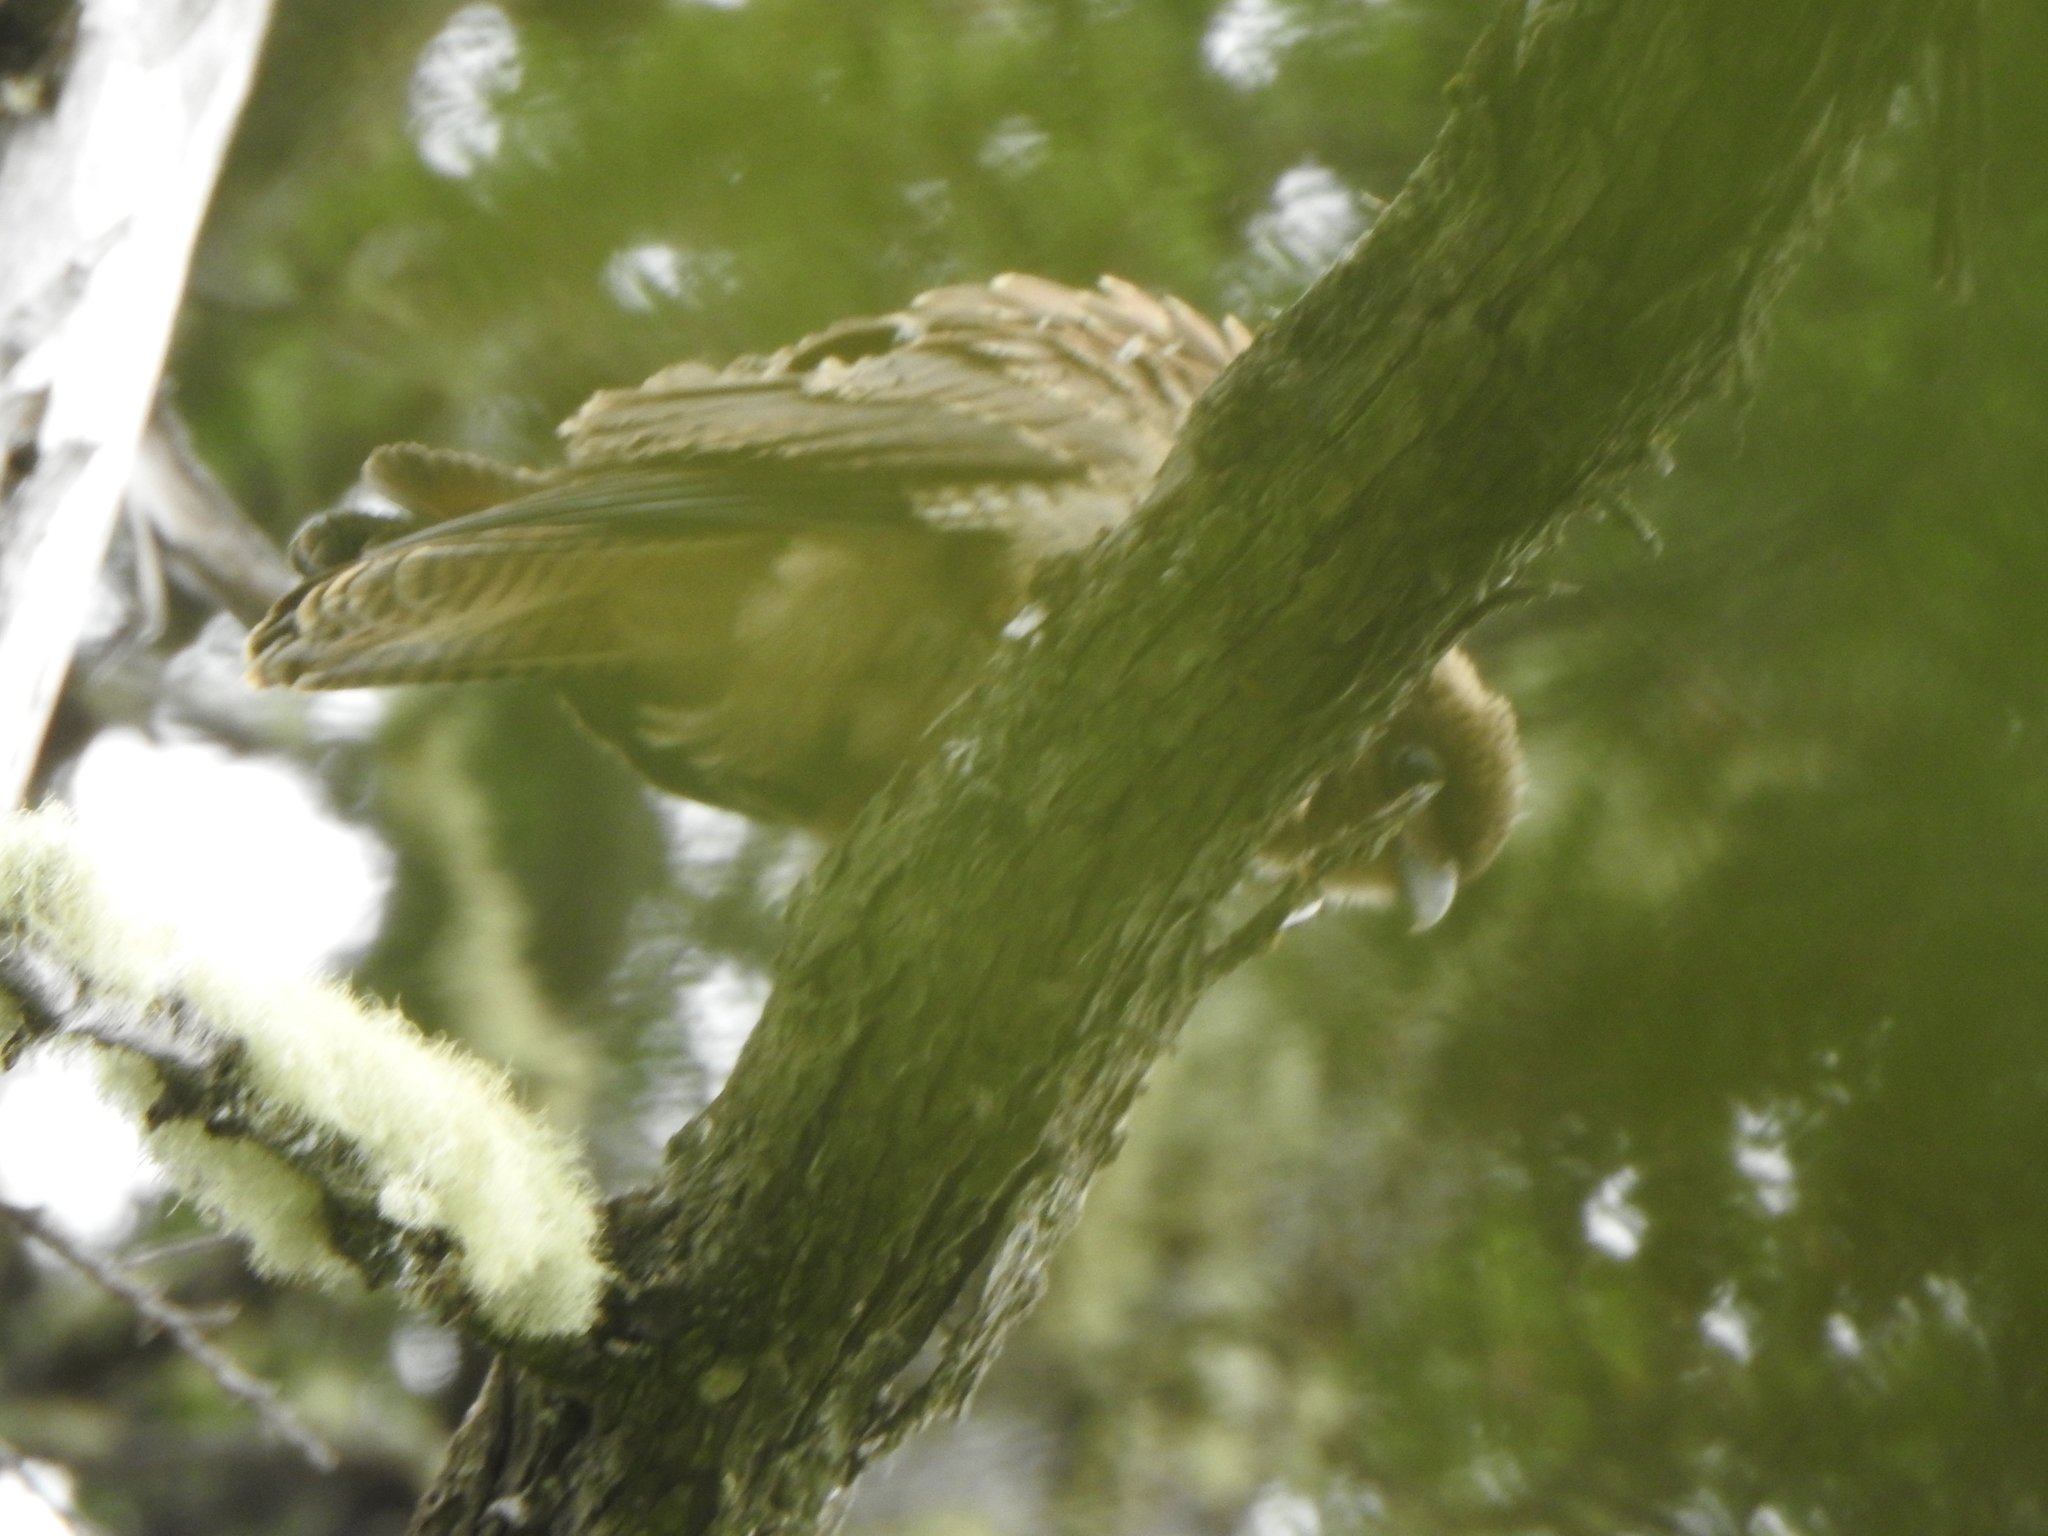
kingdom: Animalia
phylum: Chordata
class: Aves
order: Falconiformes
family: Falconidae
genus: Daptrius
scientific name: Daptrius
